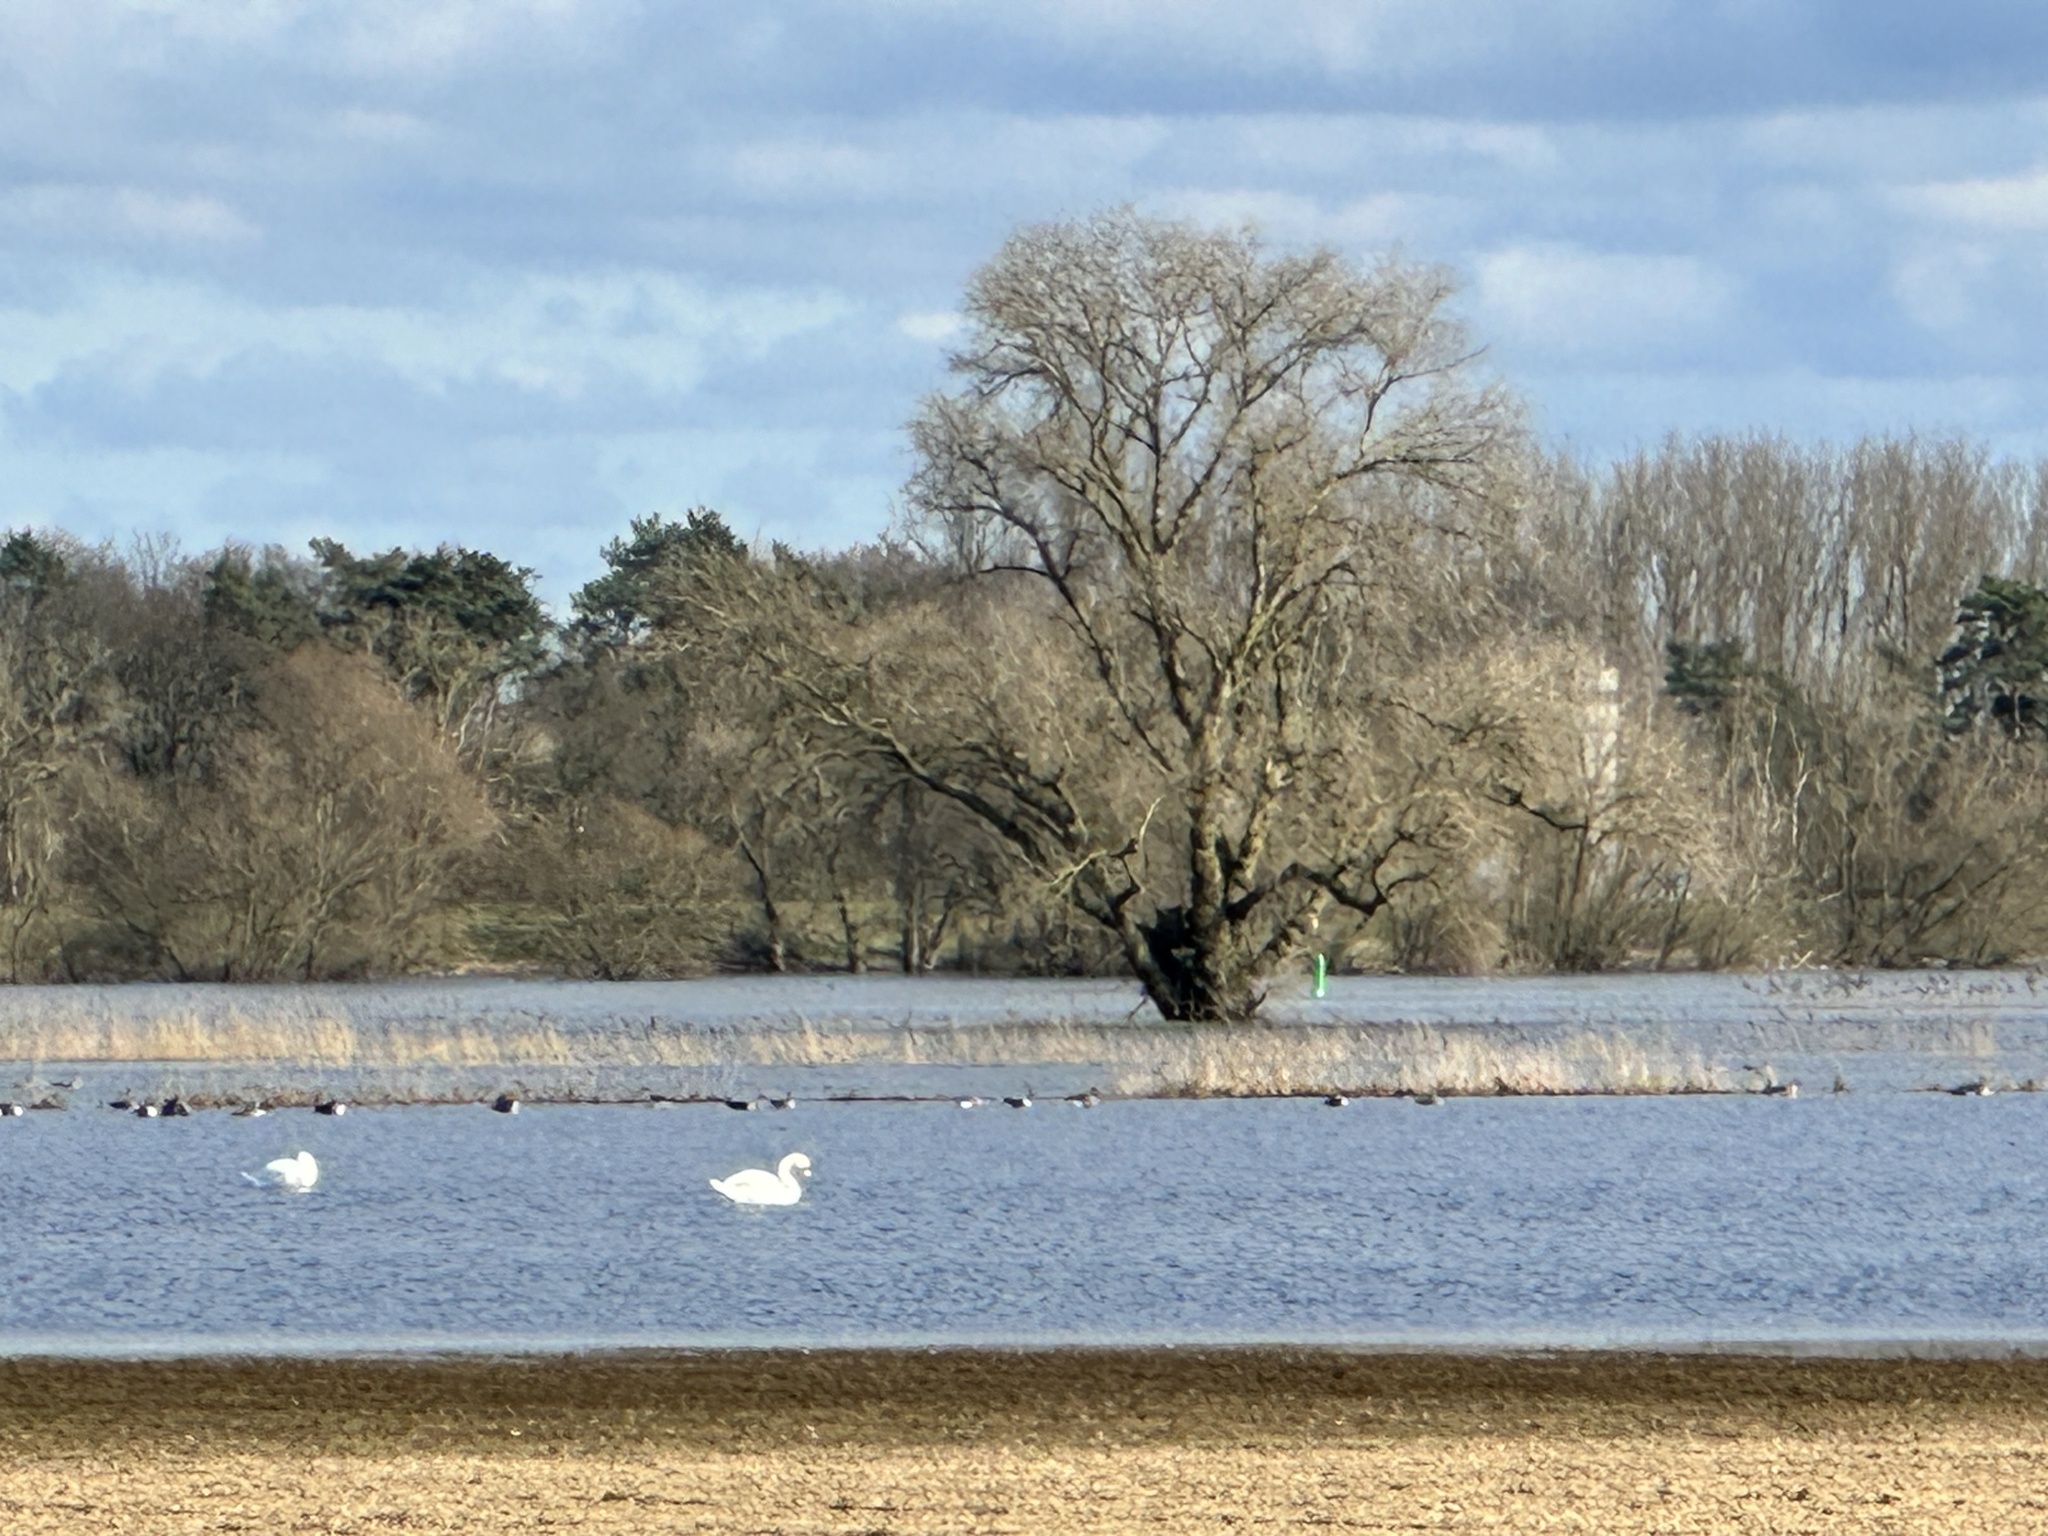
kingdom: Animalia
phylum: Chordata
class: Aves
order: Anseriformes
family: Anatidae
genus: Cygnus
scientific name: Cygnus olor
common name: Mute swan
